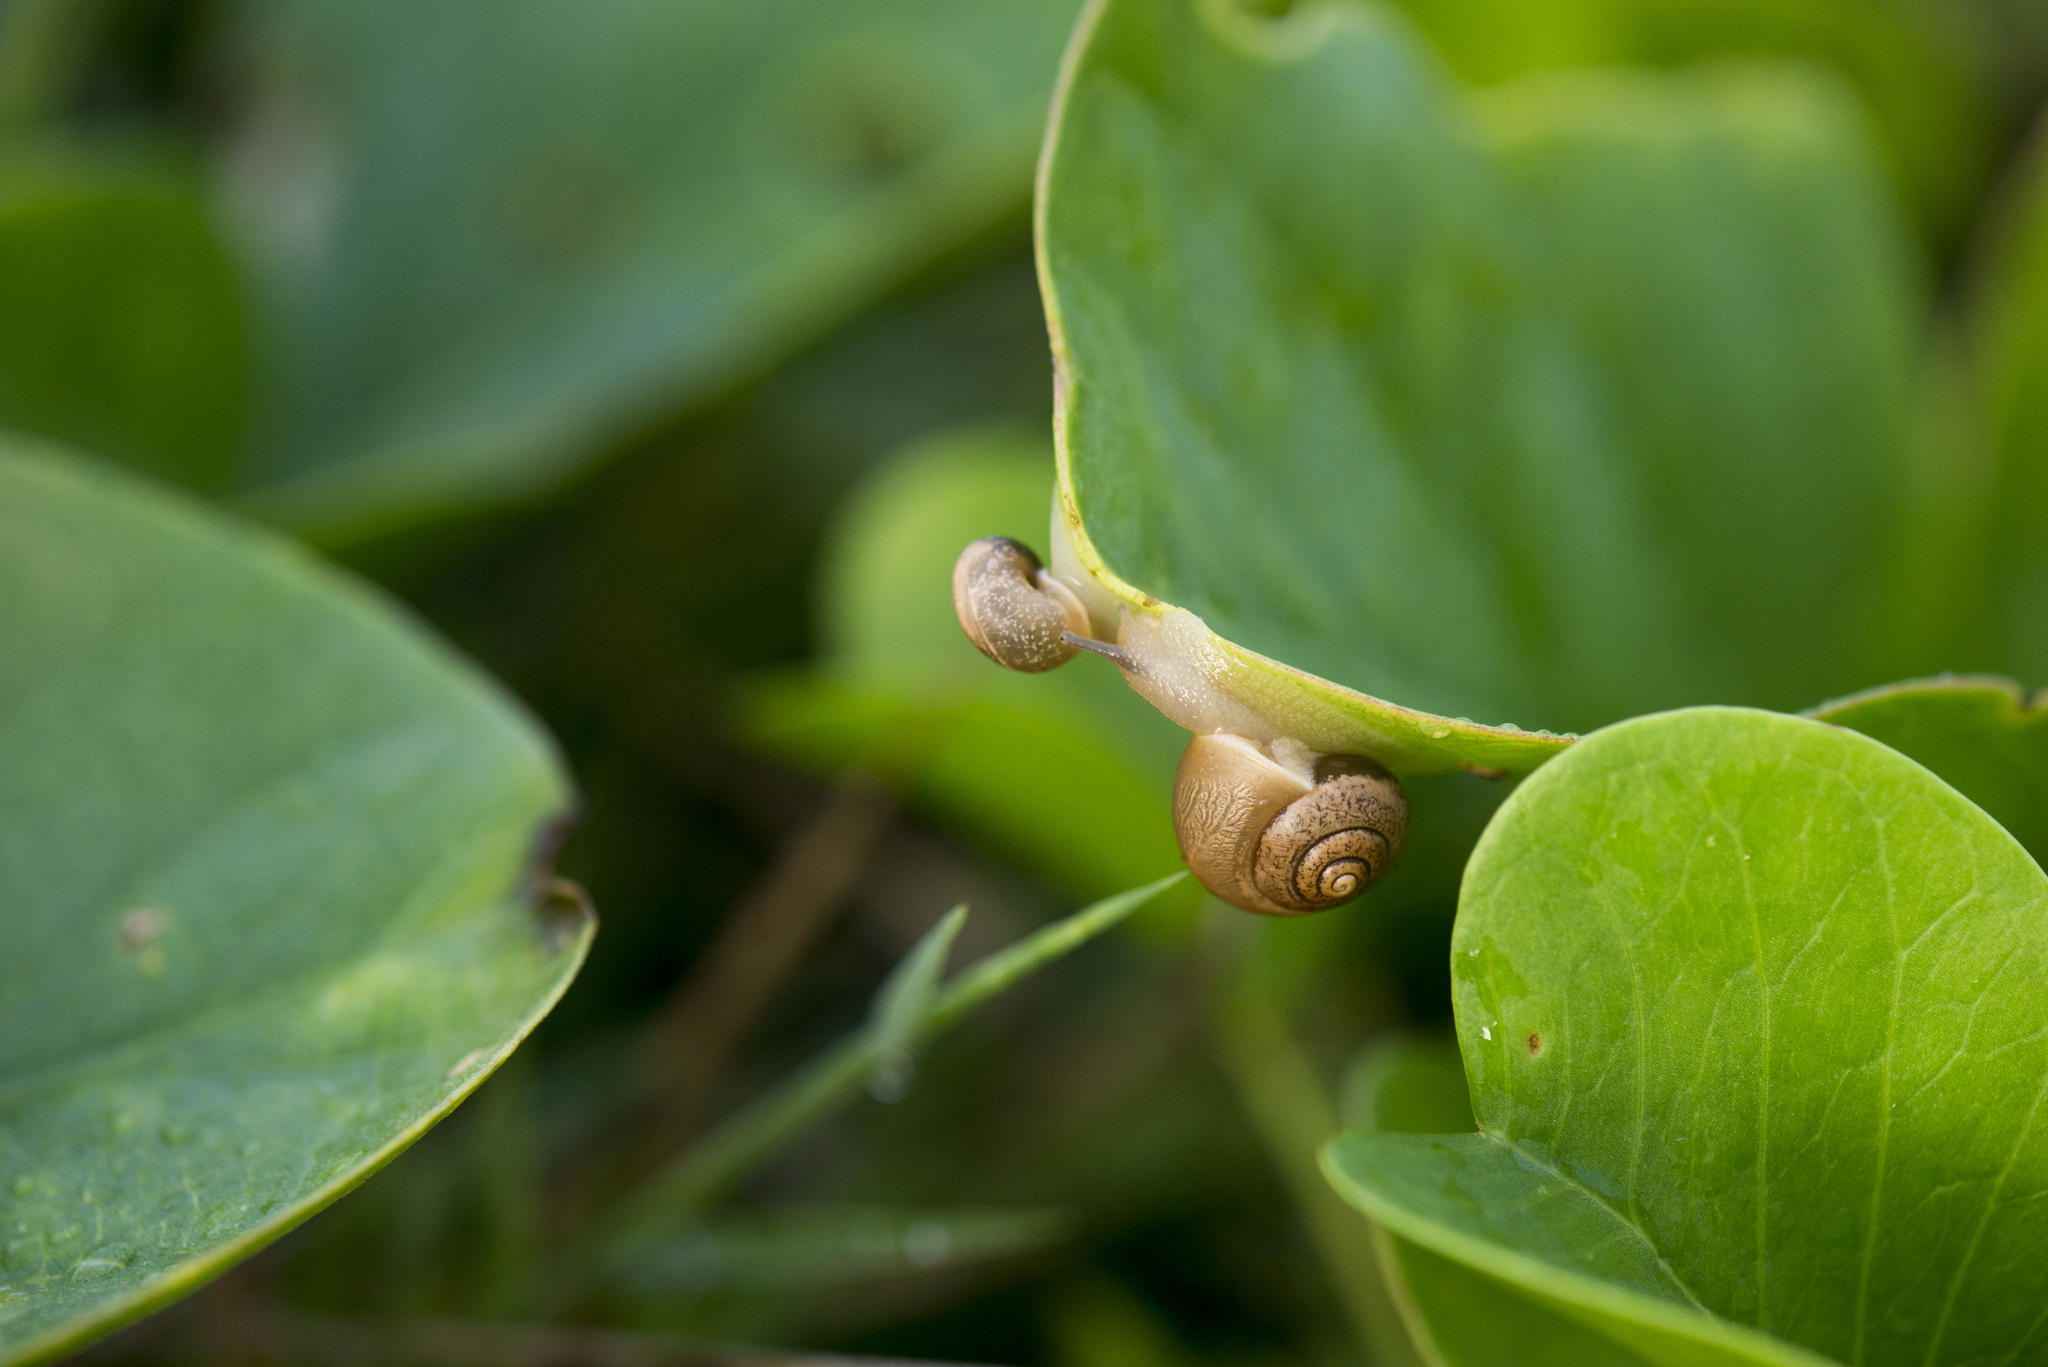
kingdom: Animalia
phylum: Mollusca
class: Gastropoda
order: Stylommatophora
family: Camaenidae
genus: Acusta
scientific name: Acusta assimilis
